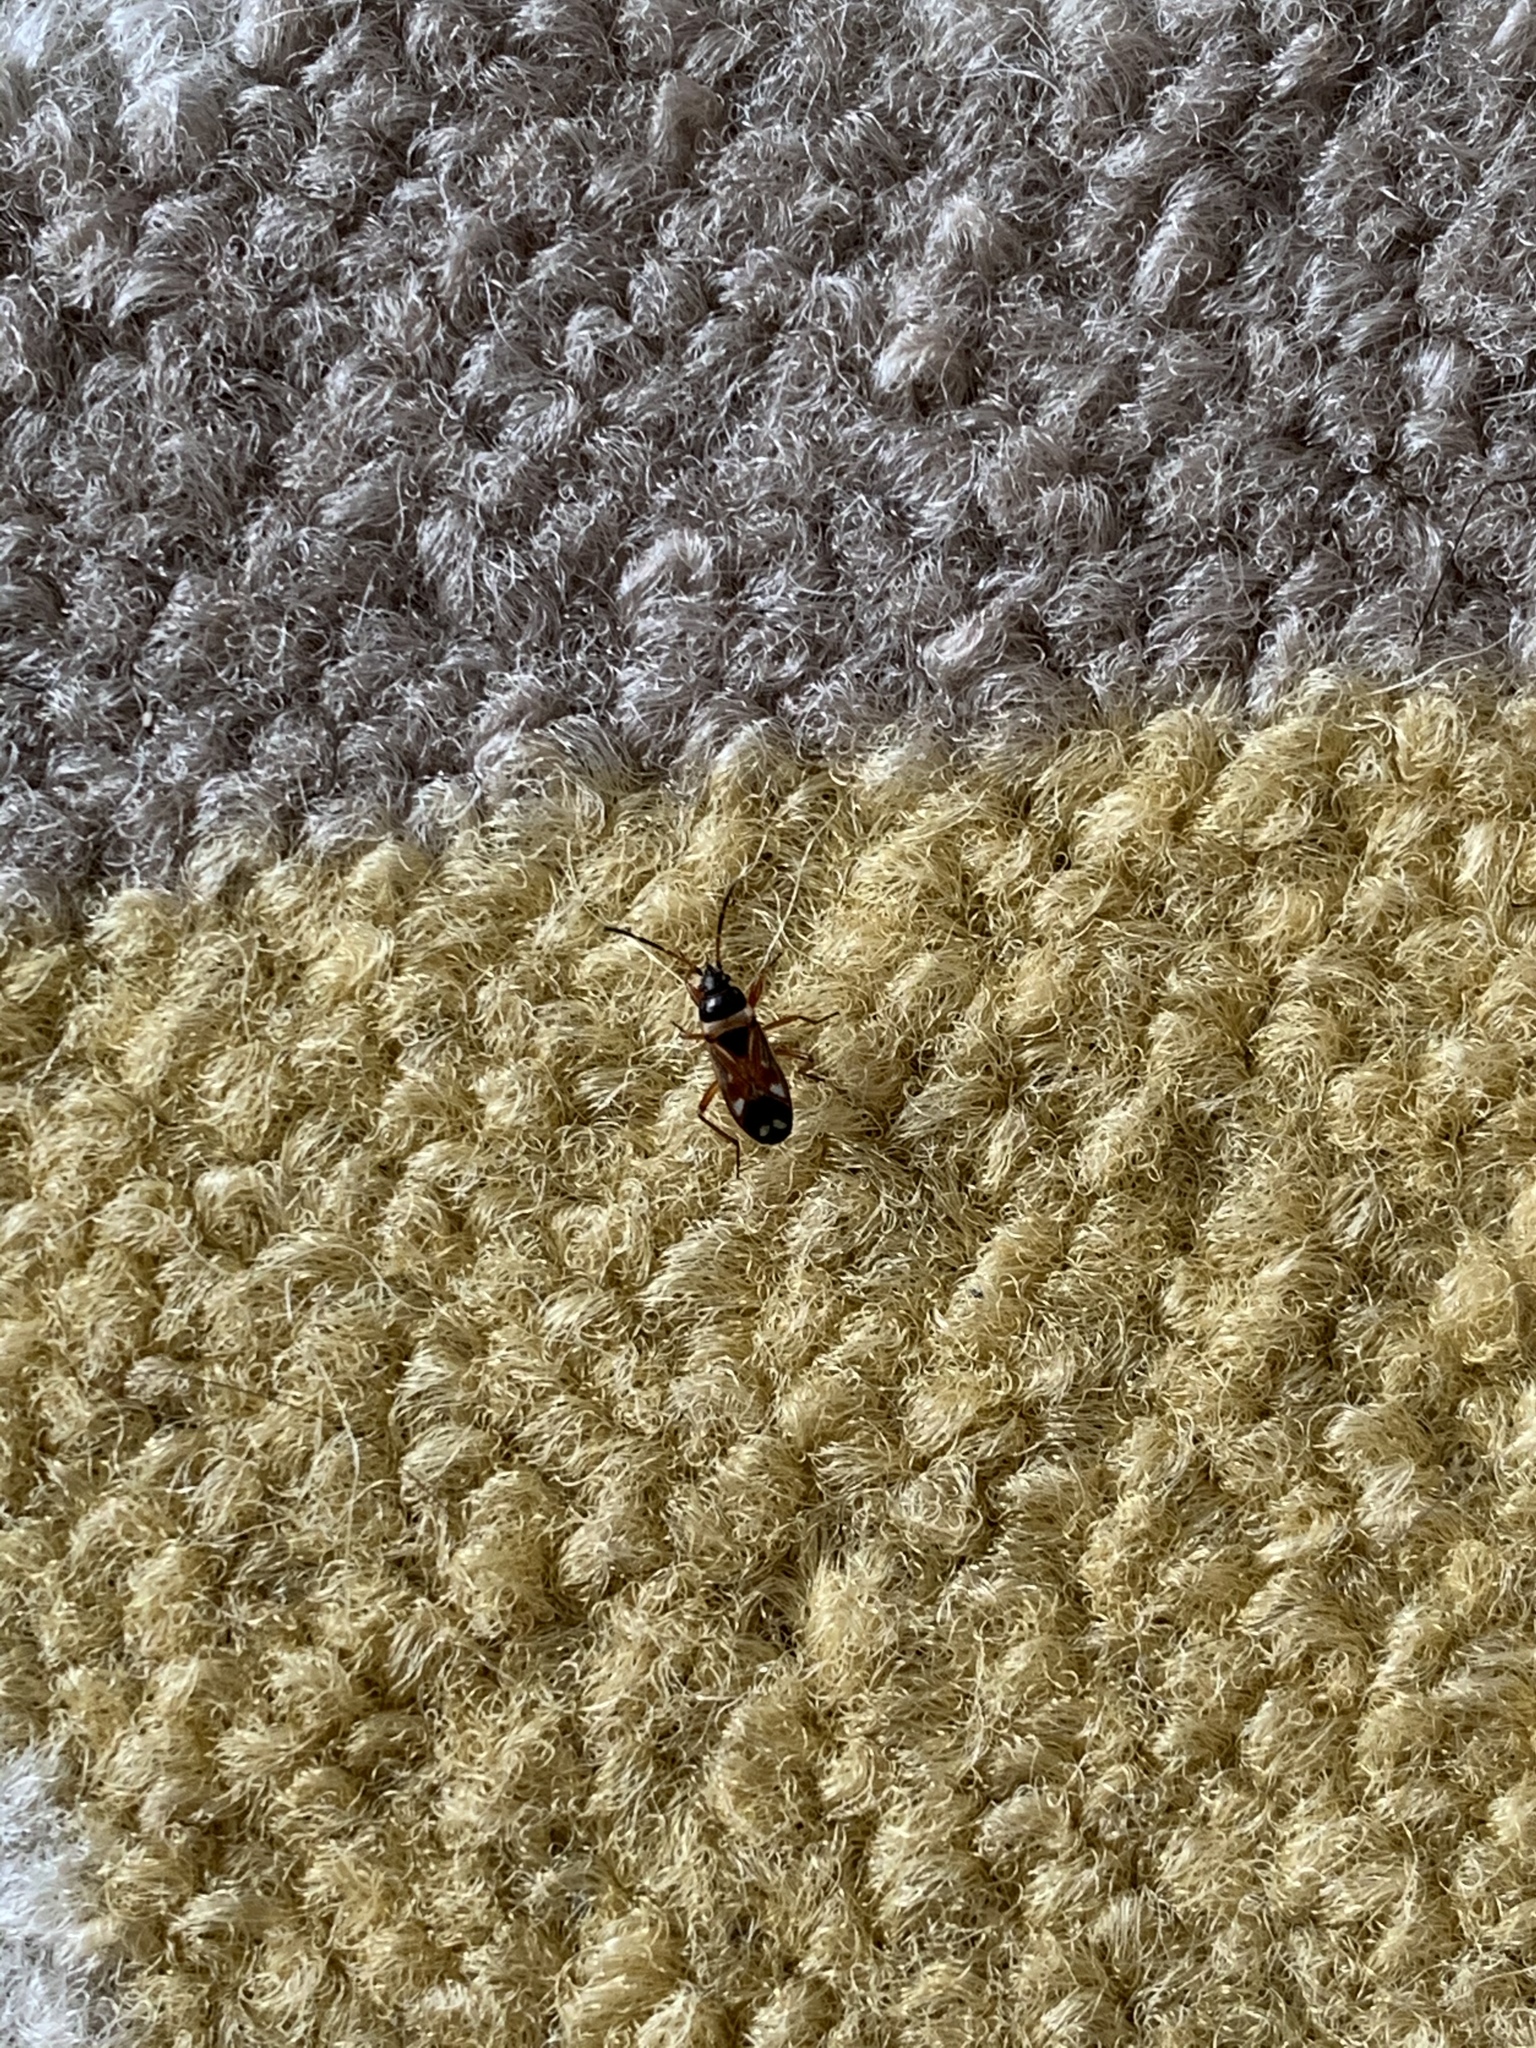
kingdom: Animalia
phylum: Arthropoda
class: Insecta
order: Hemiptera
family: Rhyparochromidae
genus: Raglius
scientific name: Raglius alboacuminatus
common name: Dirt-colored seed bug
